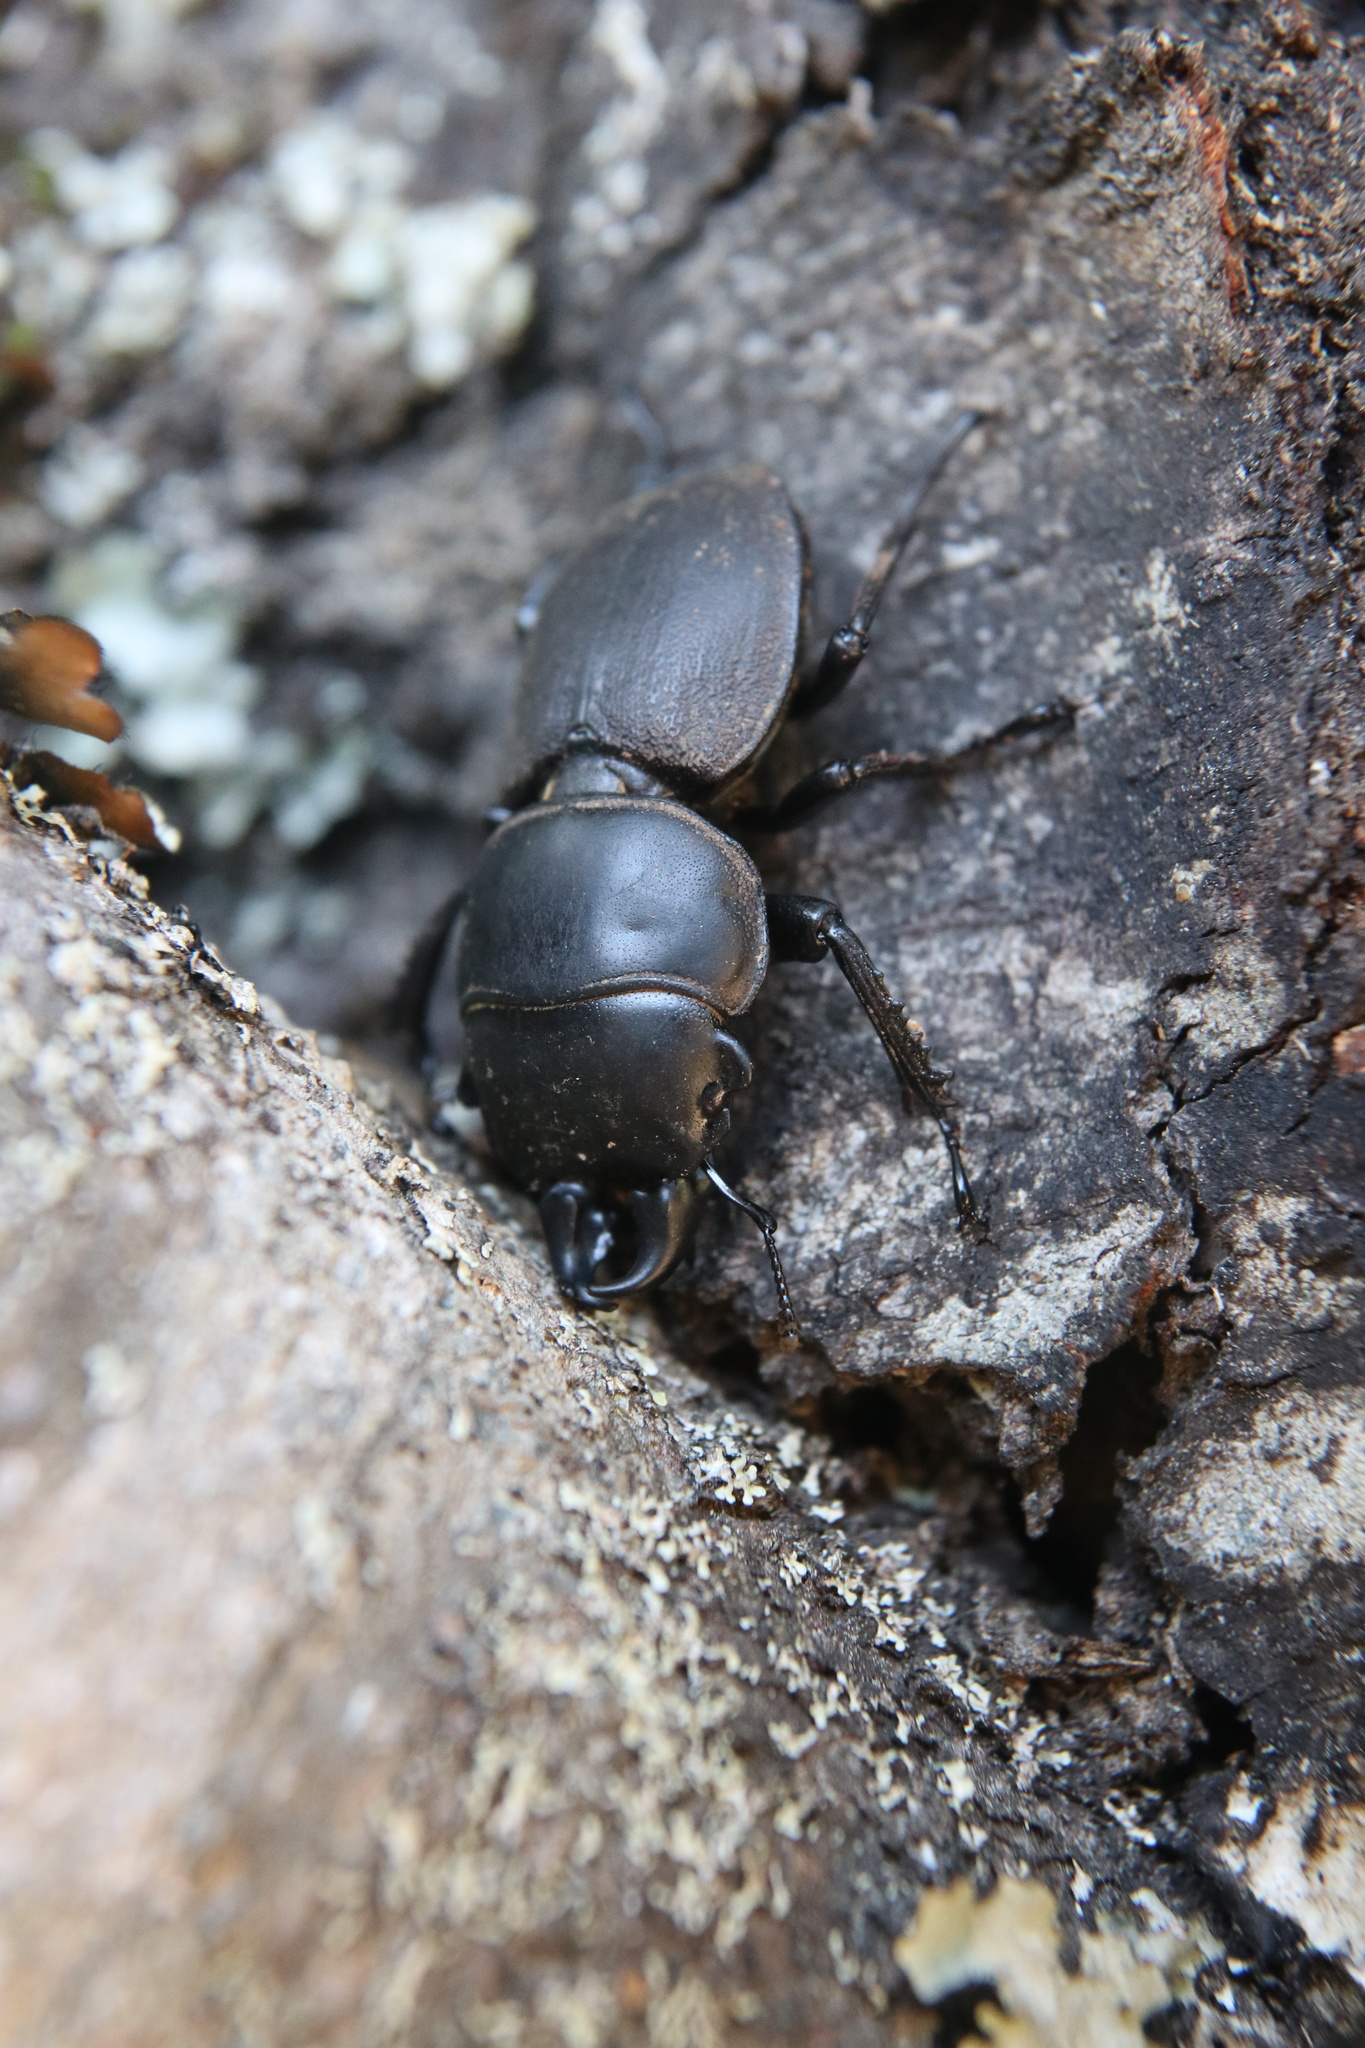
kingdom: Animalia
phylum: Arthropoda
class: Insecta
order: Coleoptera
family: Lucanidae
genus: Apterodorcus
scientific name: Apterodorcus bacchus
